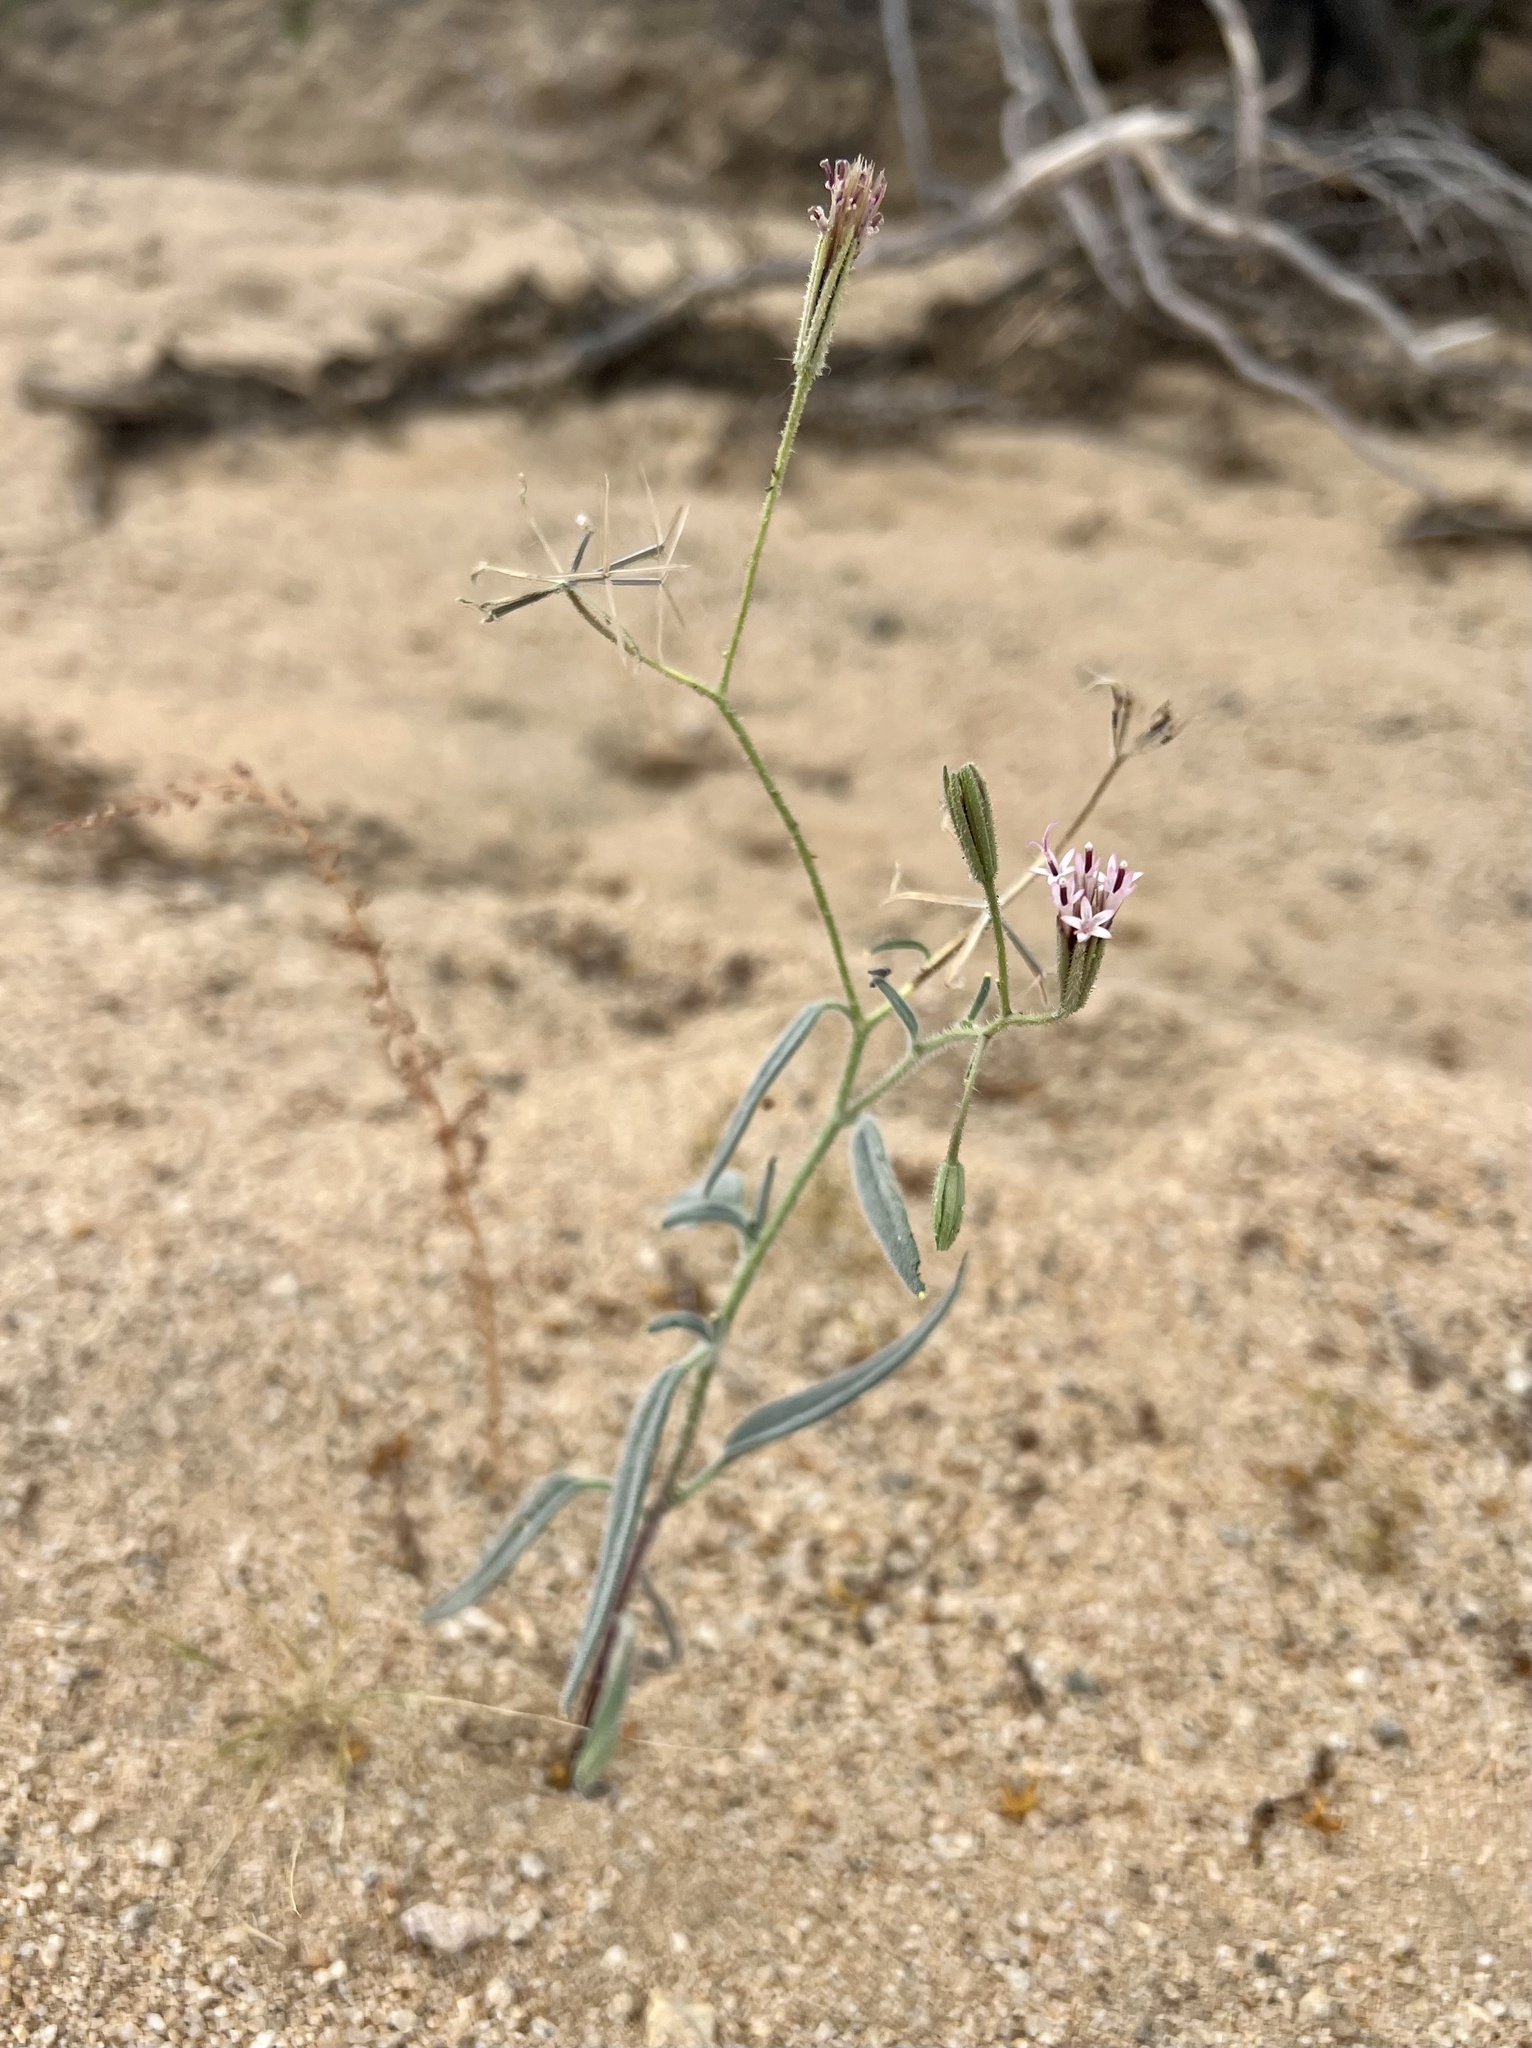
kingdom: Plantae
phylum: Tracheophyta
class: Magnoliopsida
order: Asterales
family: Asteraceae
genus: Palafoxia
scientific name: Palafoxia arida
